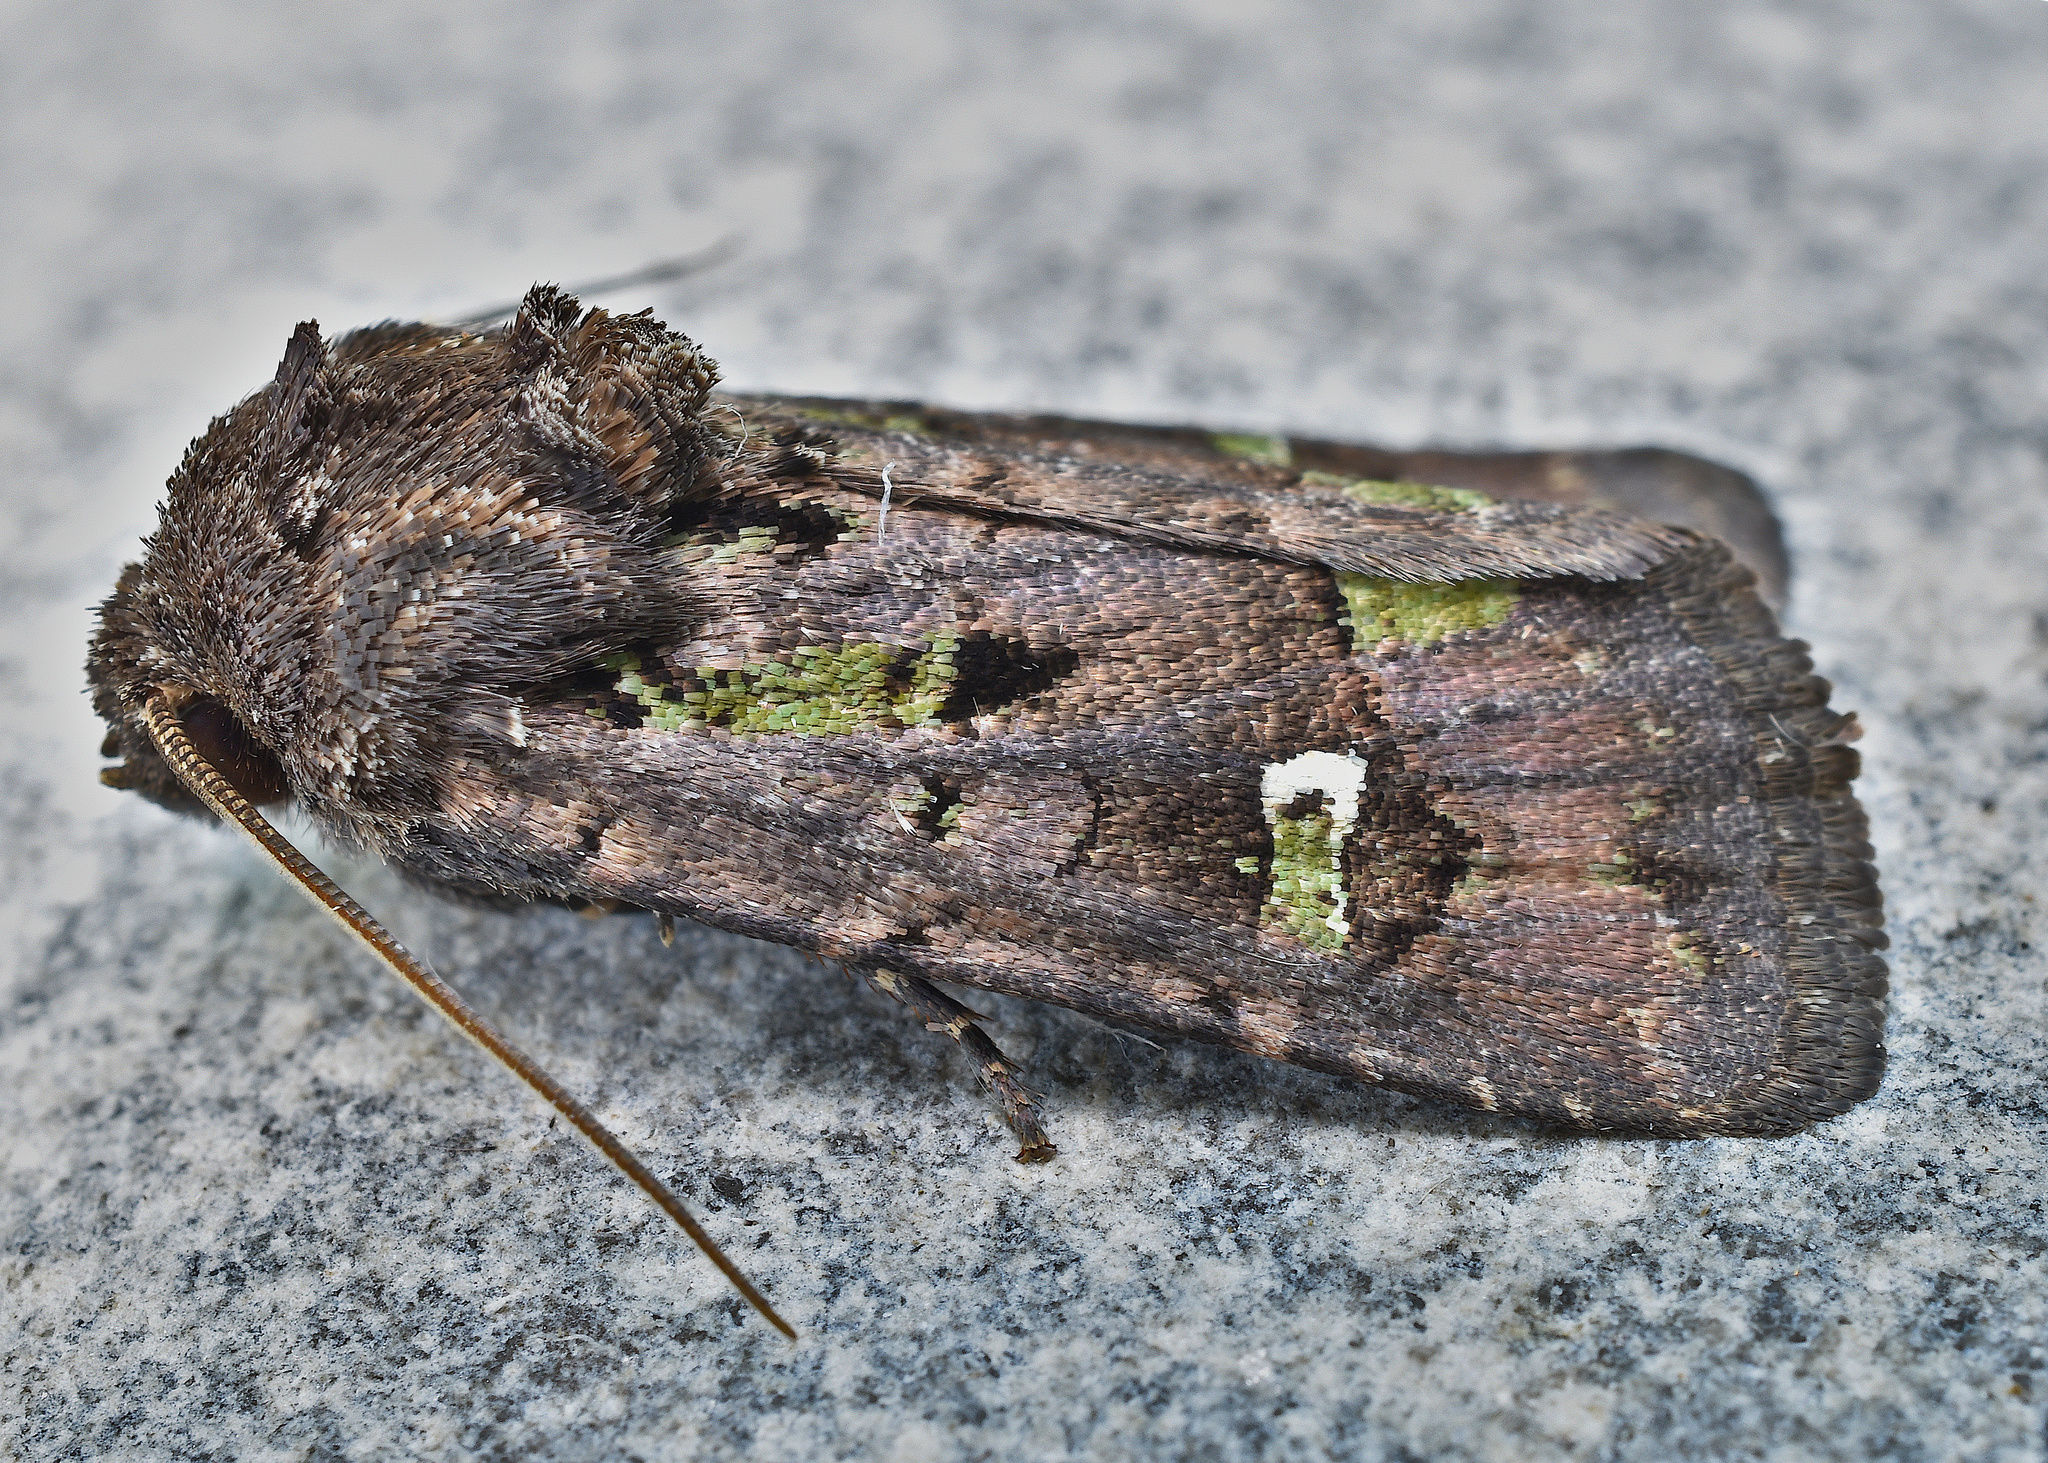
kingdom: Animalia
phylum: Arthropoda
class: Insecta
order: Lepidoptera
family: Noctuidae
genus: Lacinipolia
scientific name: Lacinipolia renigera
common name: Kidney-spotted minor
